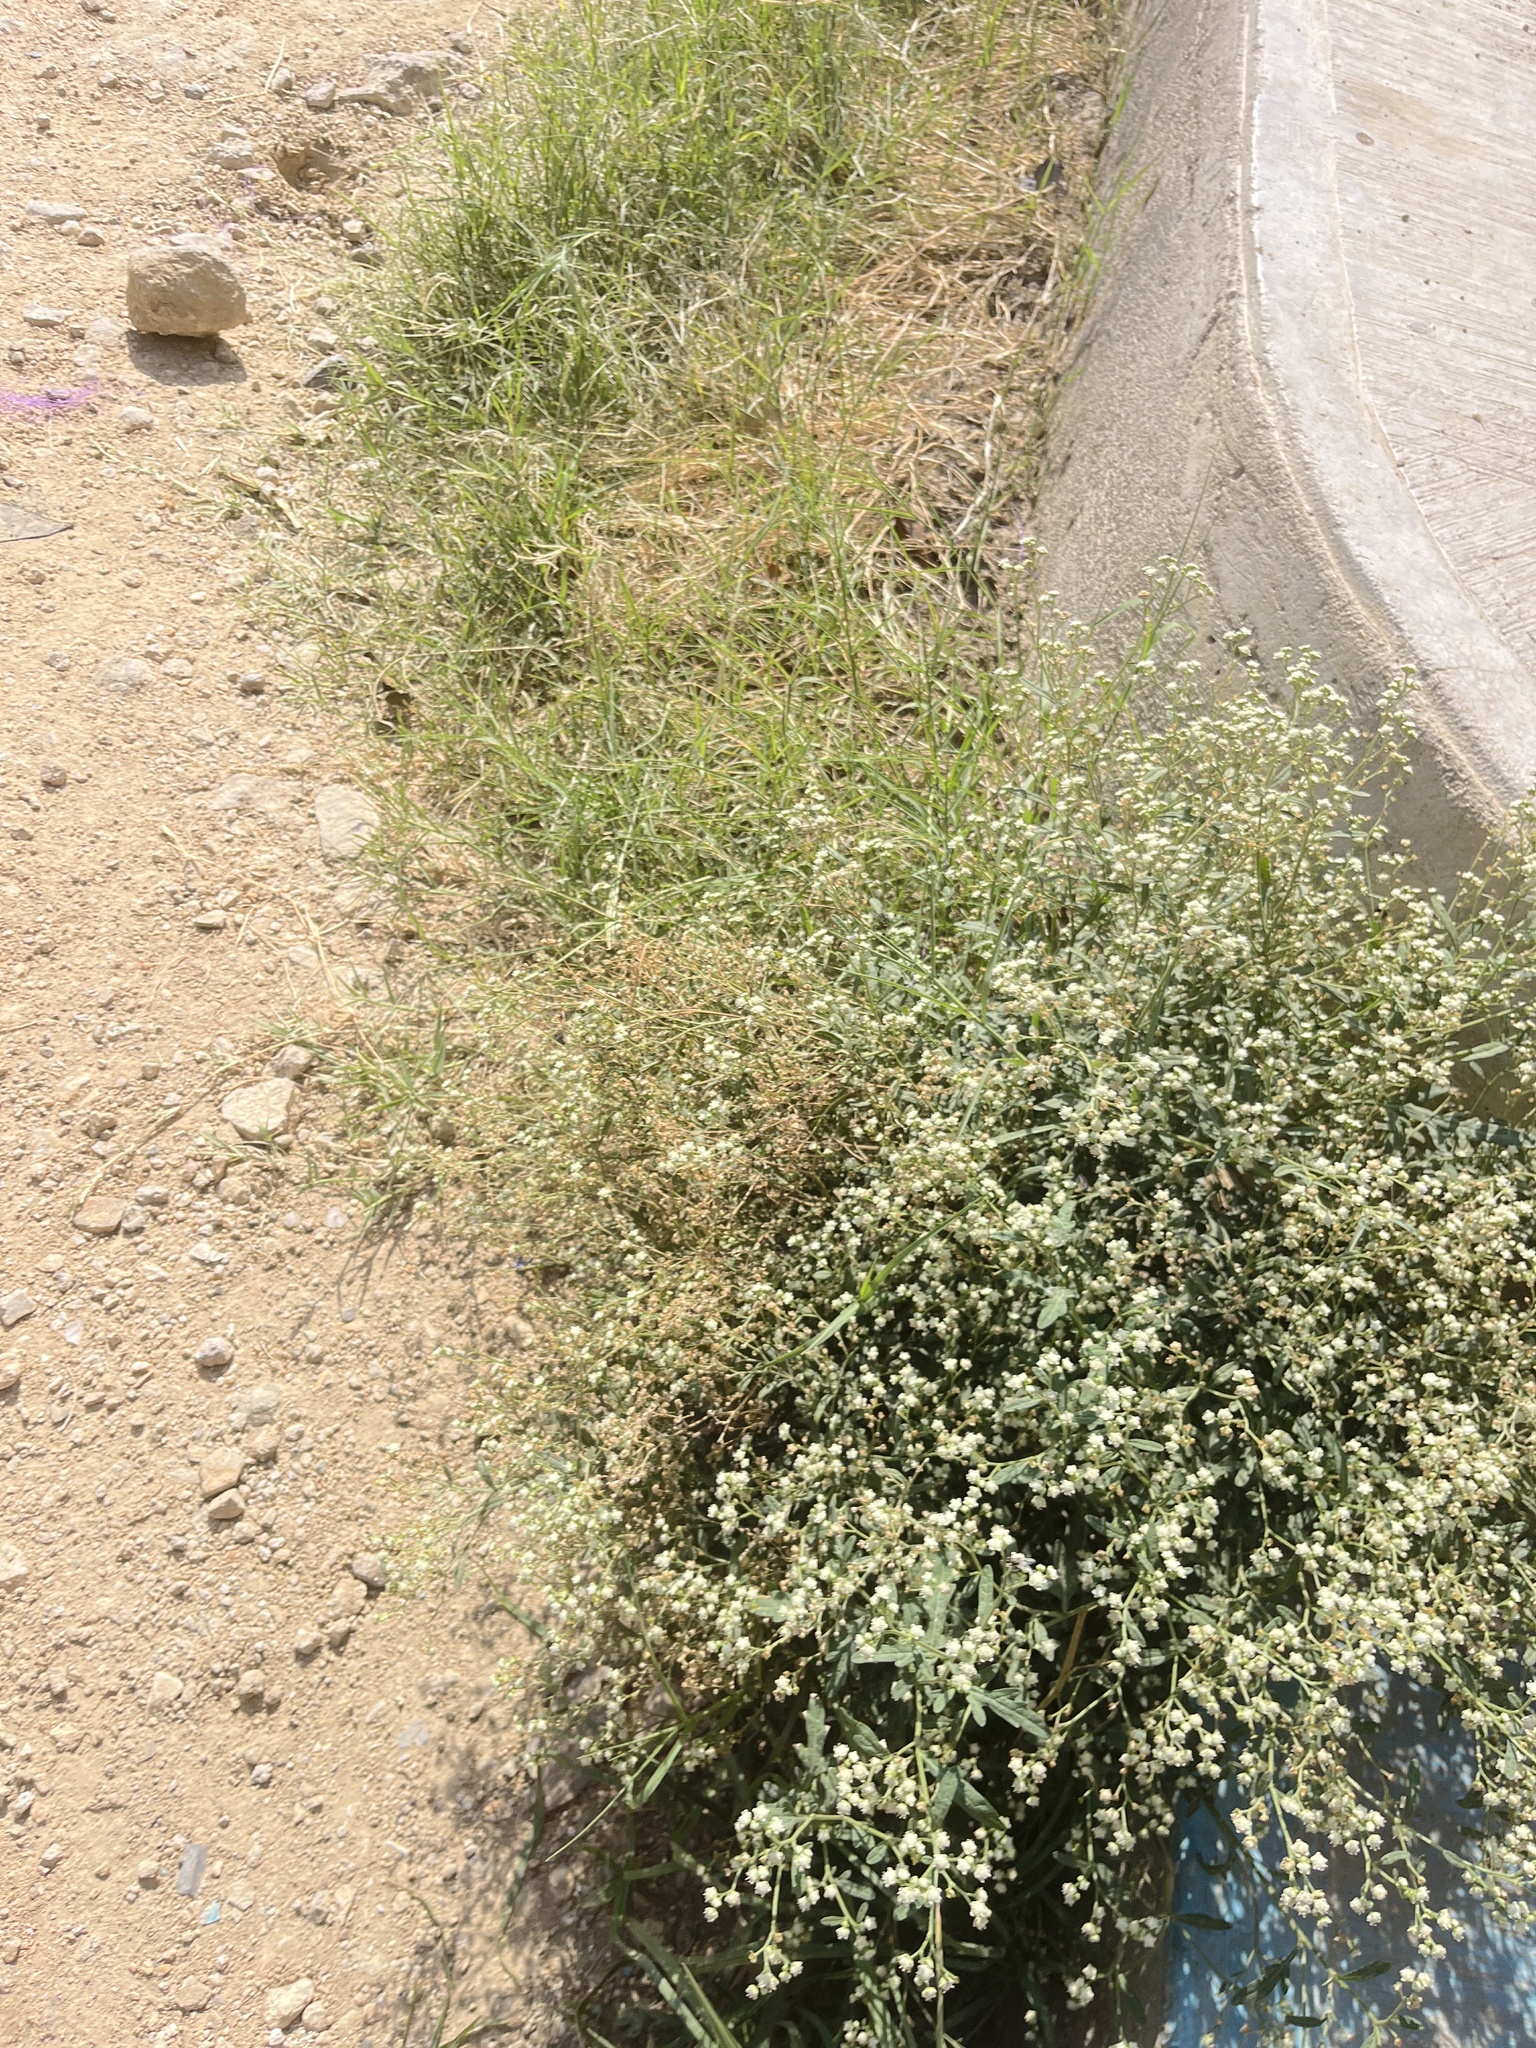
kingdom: Plantae
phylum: Tracheophyta
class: Magnoliopsida
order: Asterales
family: Asteraceae
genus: Parthenium
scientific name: Parthenium hysterophorus
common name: Santa maria feverfew
